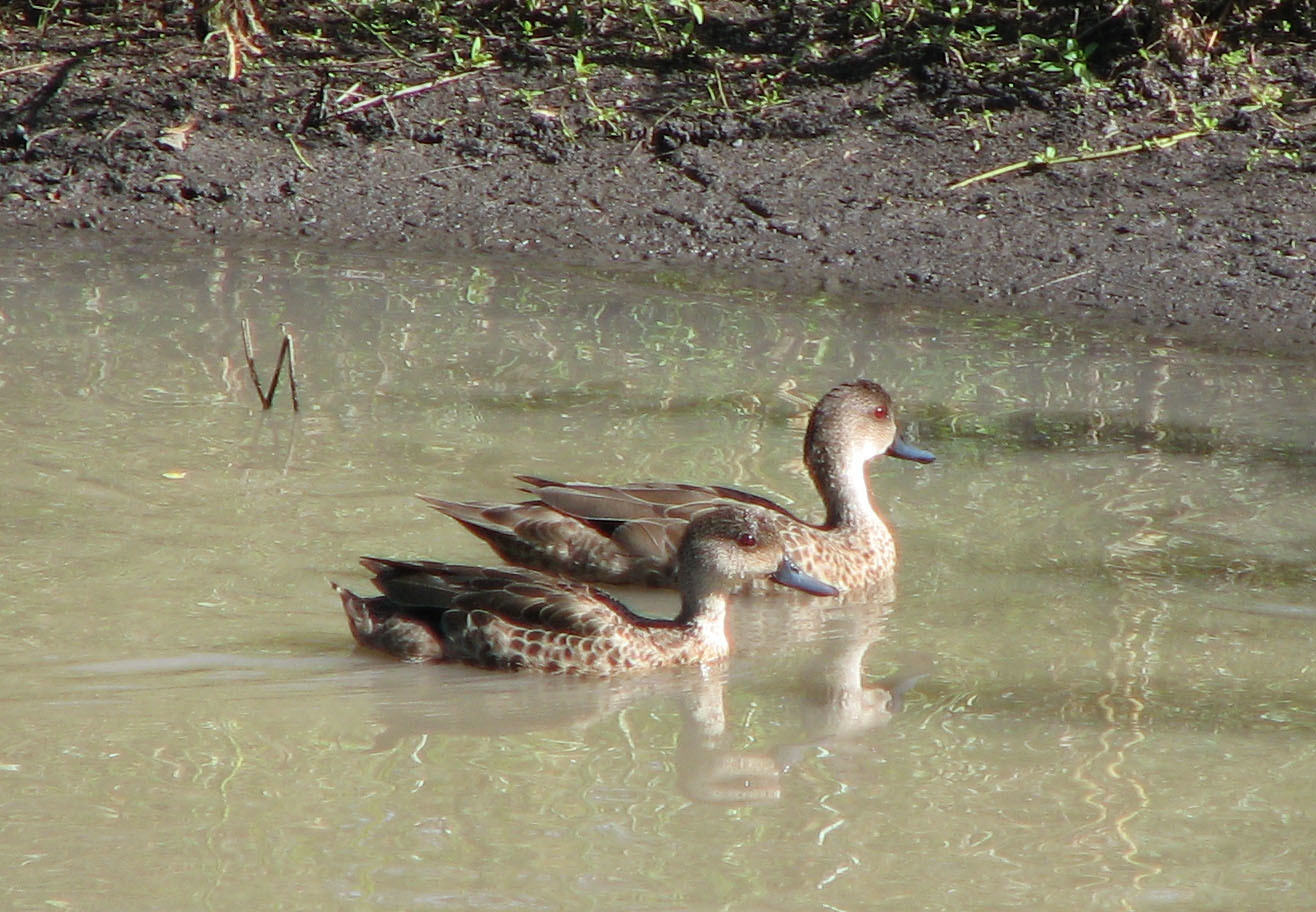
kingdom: Animalia
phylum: Chordata
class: Aves
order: Anseriformes
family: Anatidae
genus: Anas
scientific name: Anas gracilis
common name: Grey teal
